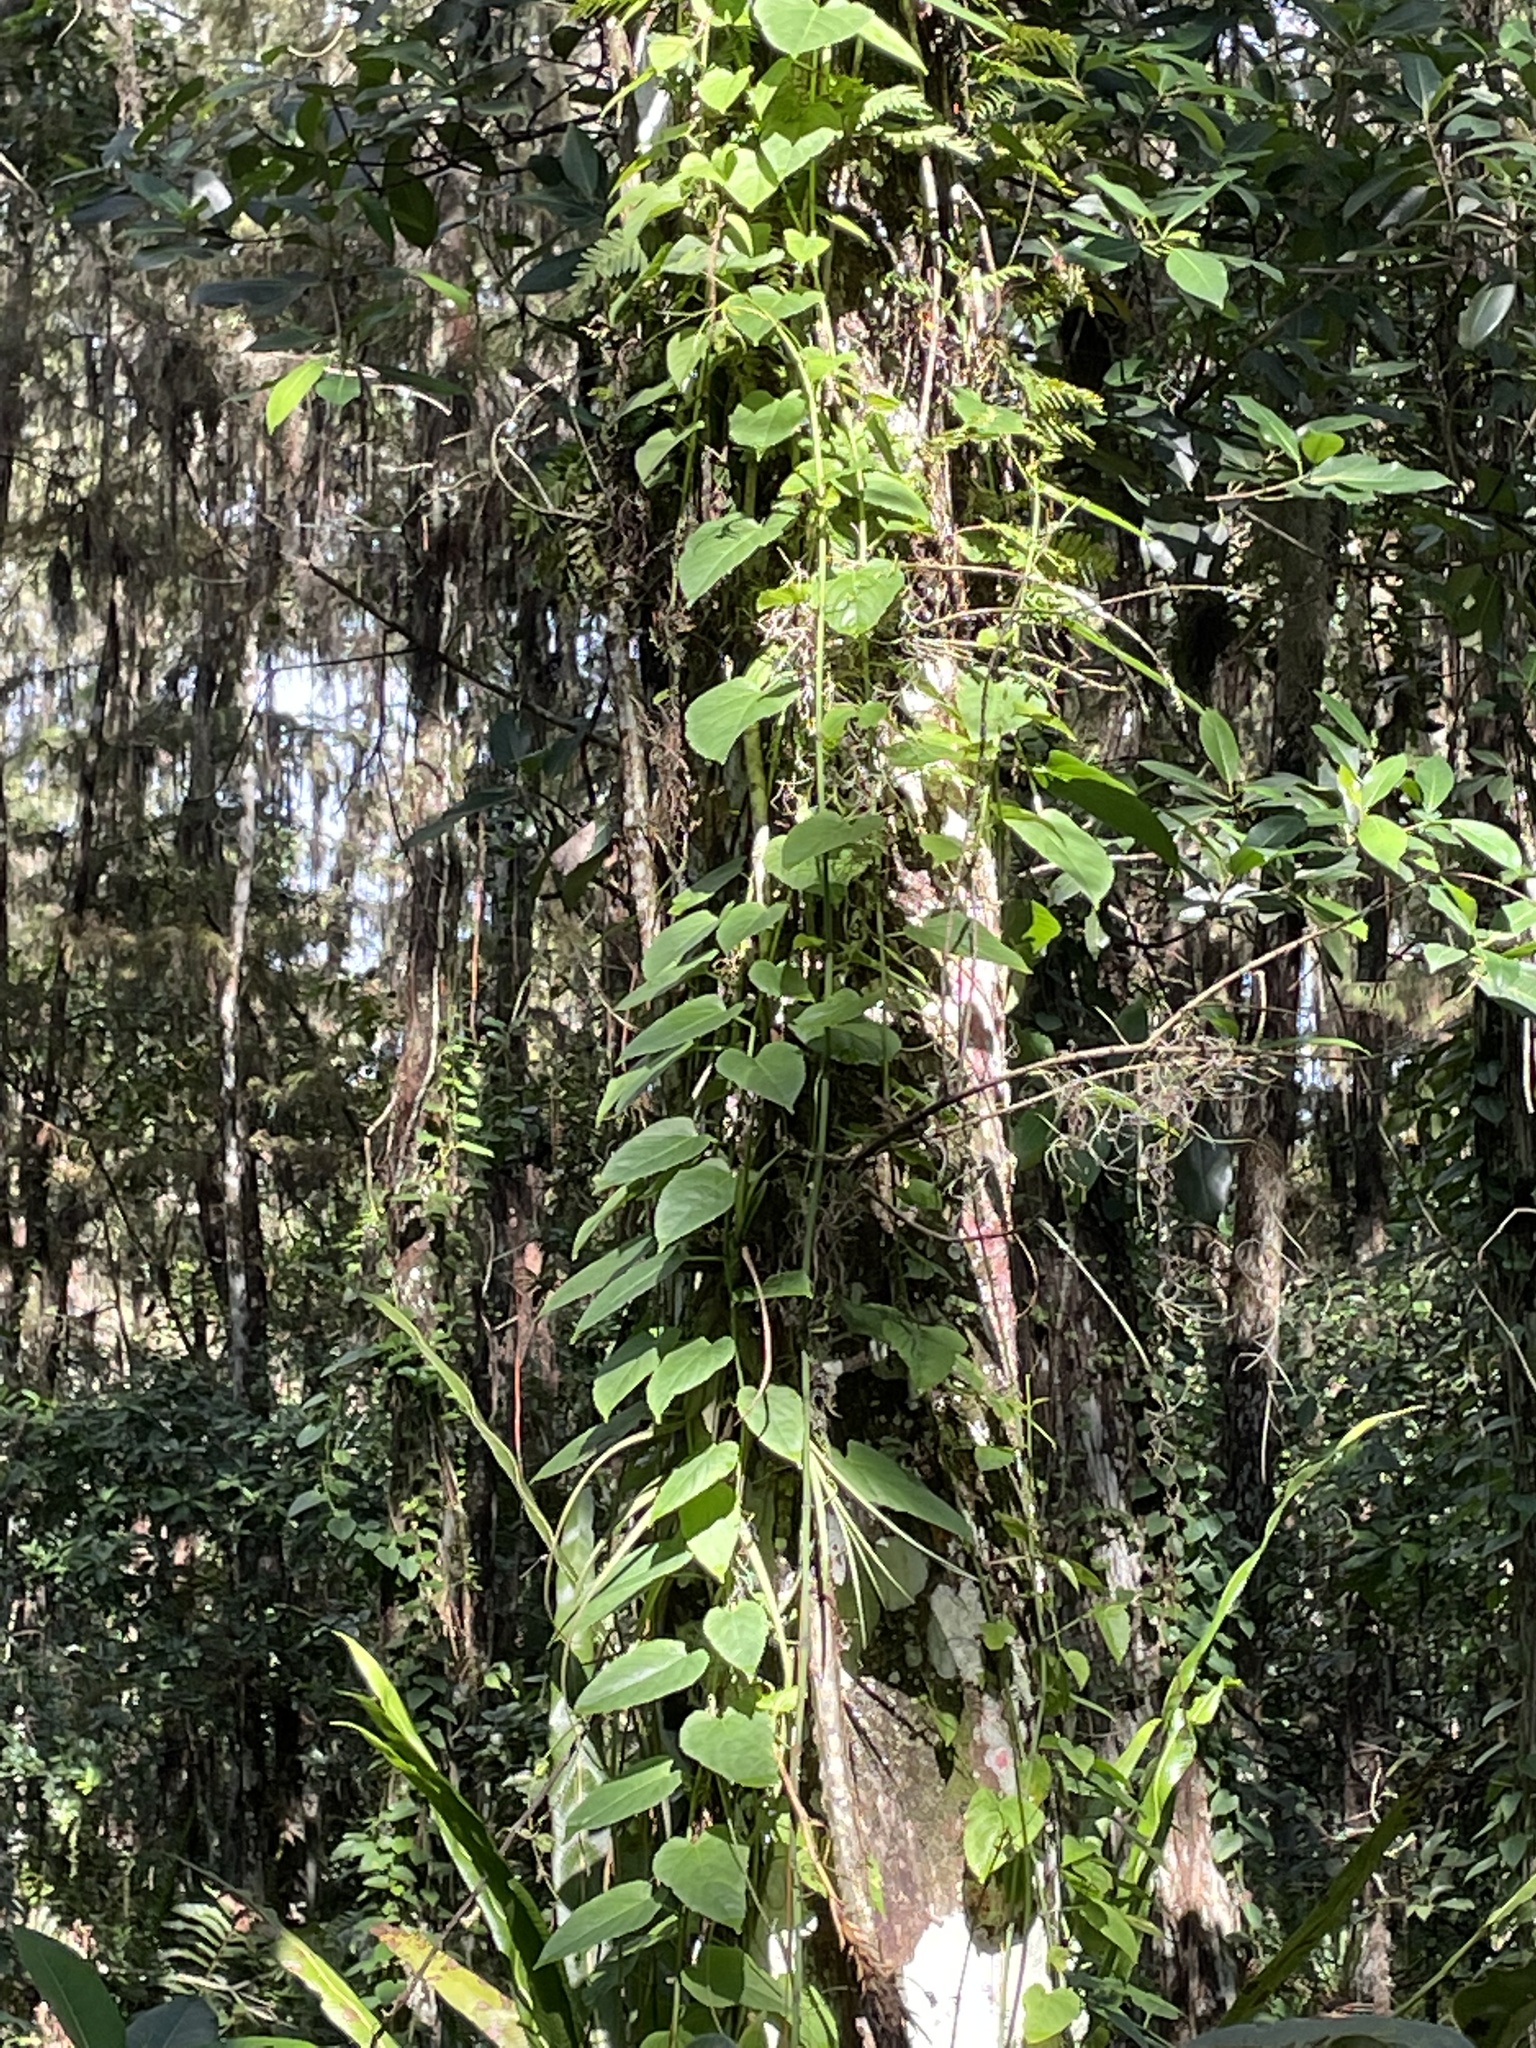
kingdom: Plantae
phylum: Tracheophyta
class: Magnoliopsida
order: Vitales
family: Vitaceae
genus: Cissus
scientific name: Cissus verticillata
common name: Princess vine
